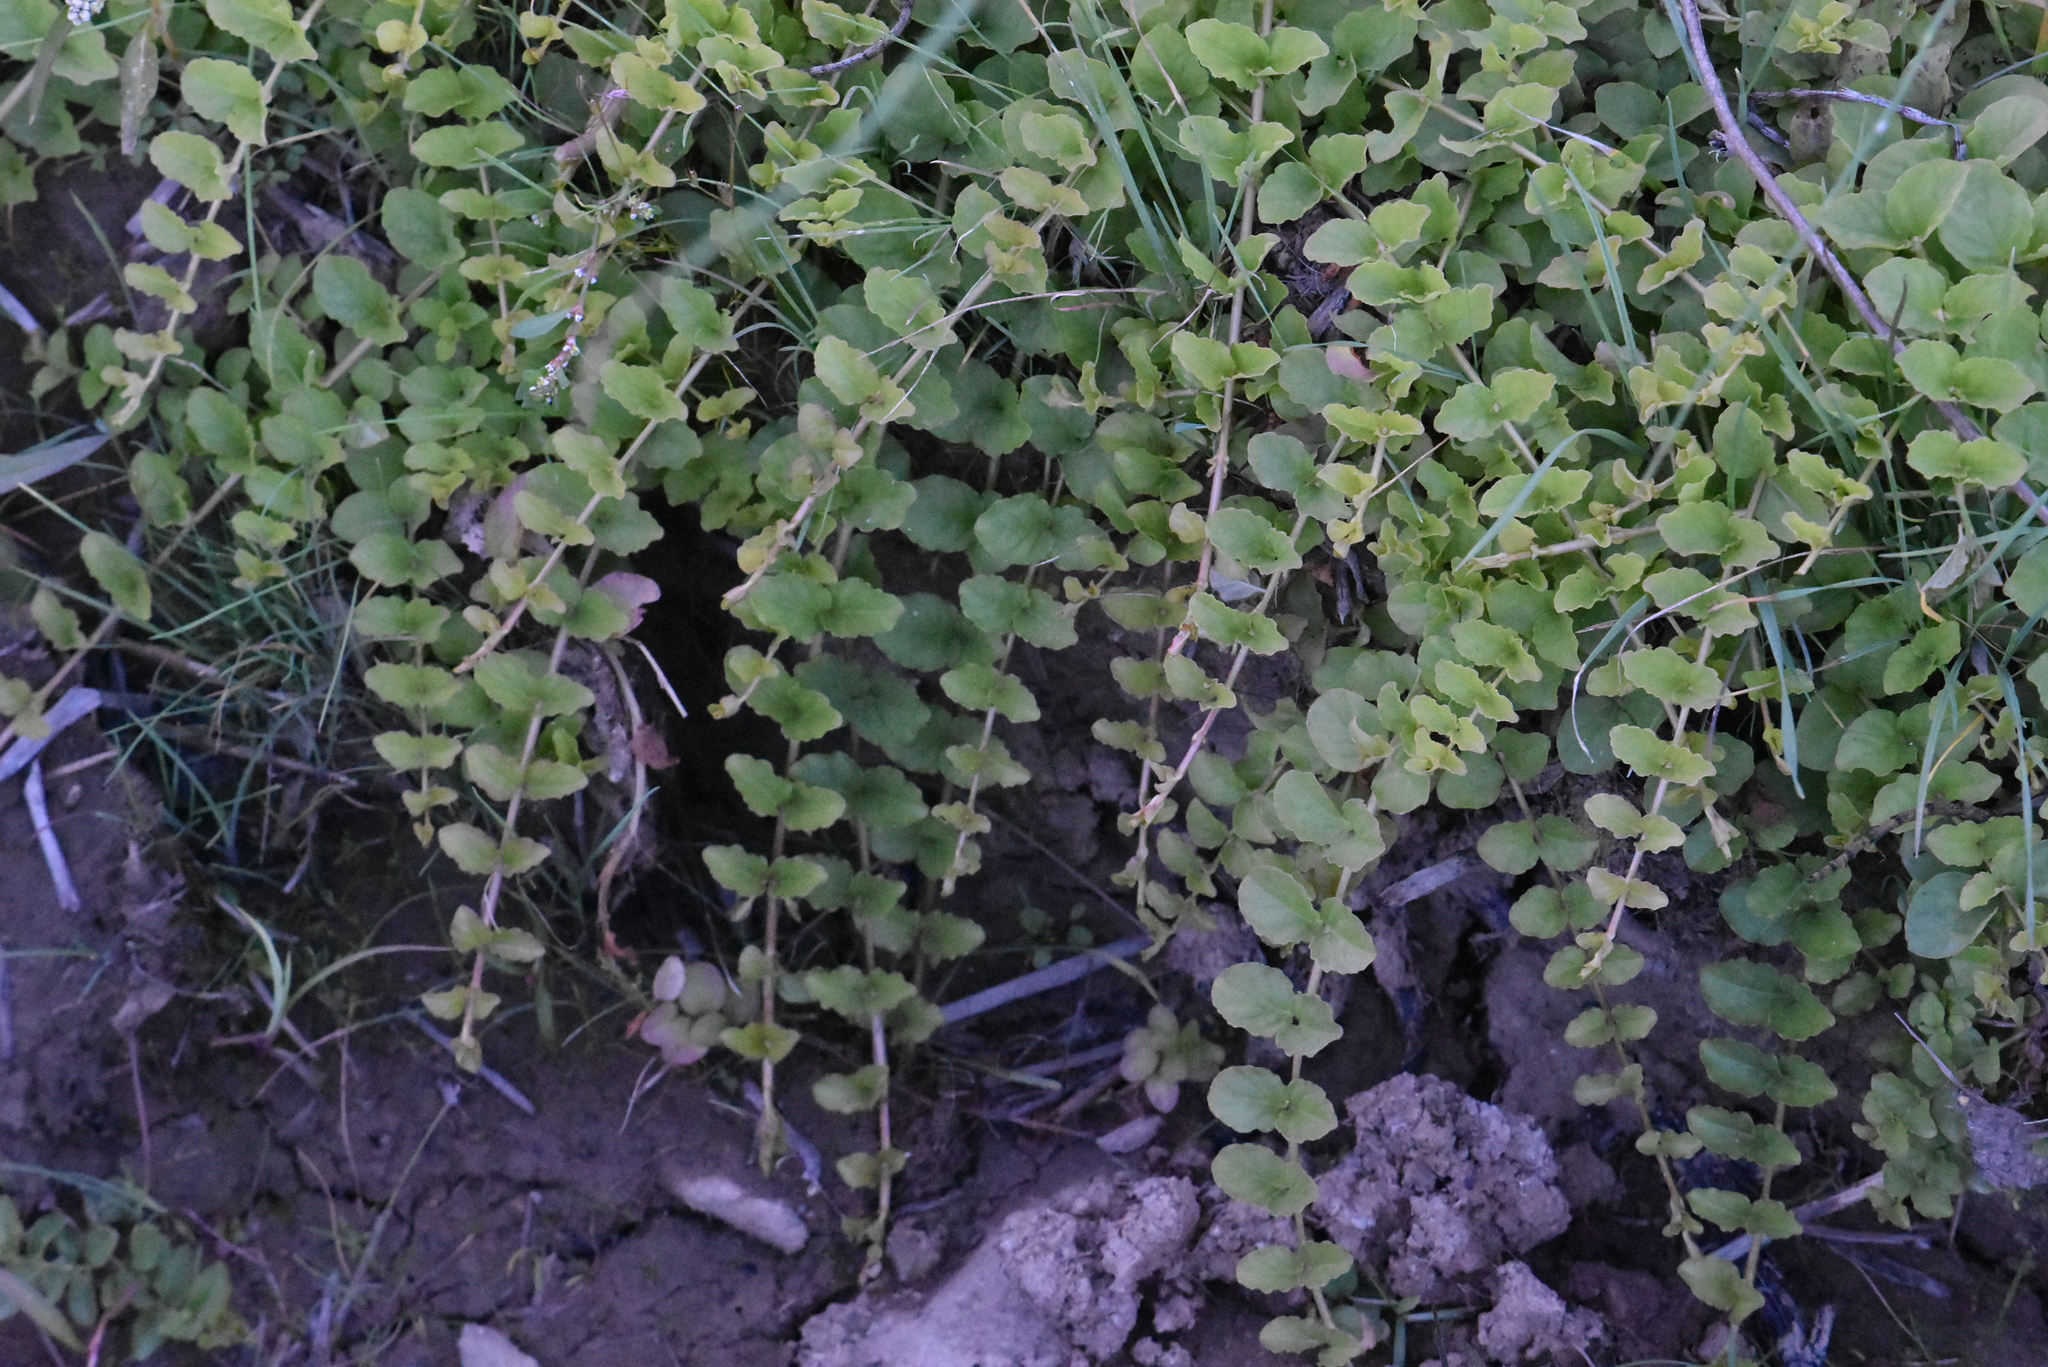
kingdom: Plantae
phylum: Tracheophyta
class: Magnoliopsida
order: Ericales
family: Primulaceae
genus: Lysimachia
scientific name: Lysimachia nummularia
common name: Moneywort
